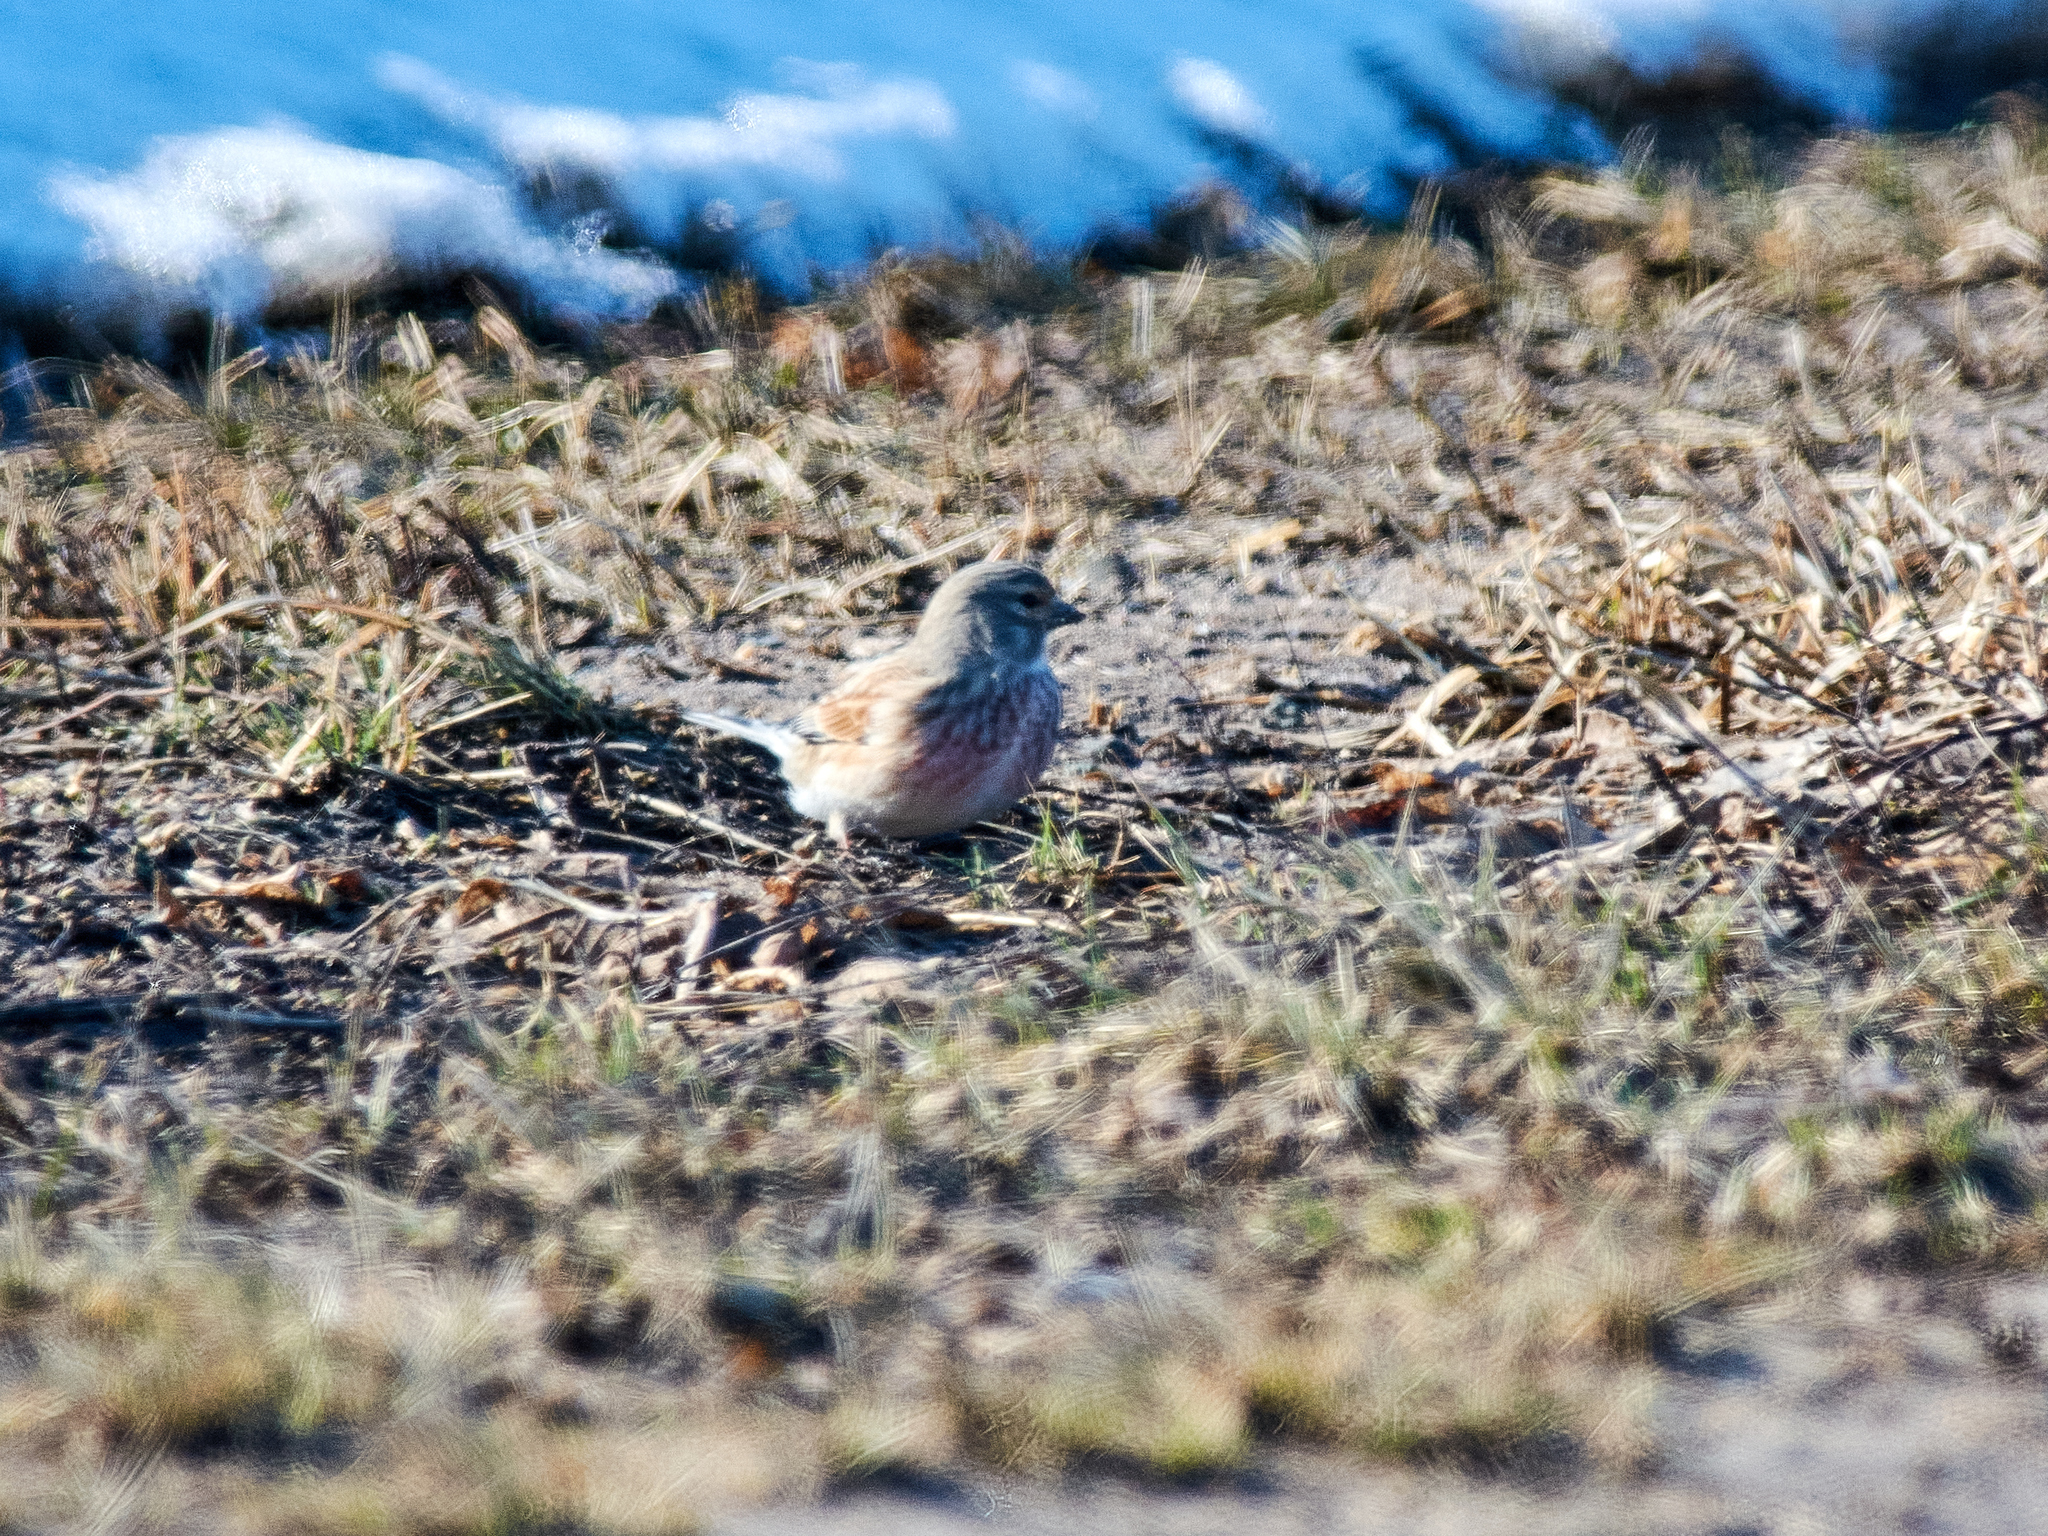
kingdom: Animalia
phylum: Chordata
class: Aves
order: Passeriformes
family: Fringillidae
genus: Linaria
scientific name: Linaria cannabina
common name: Common linnet
